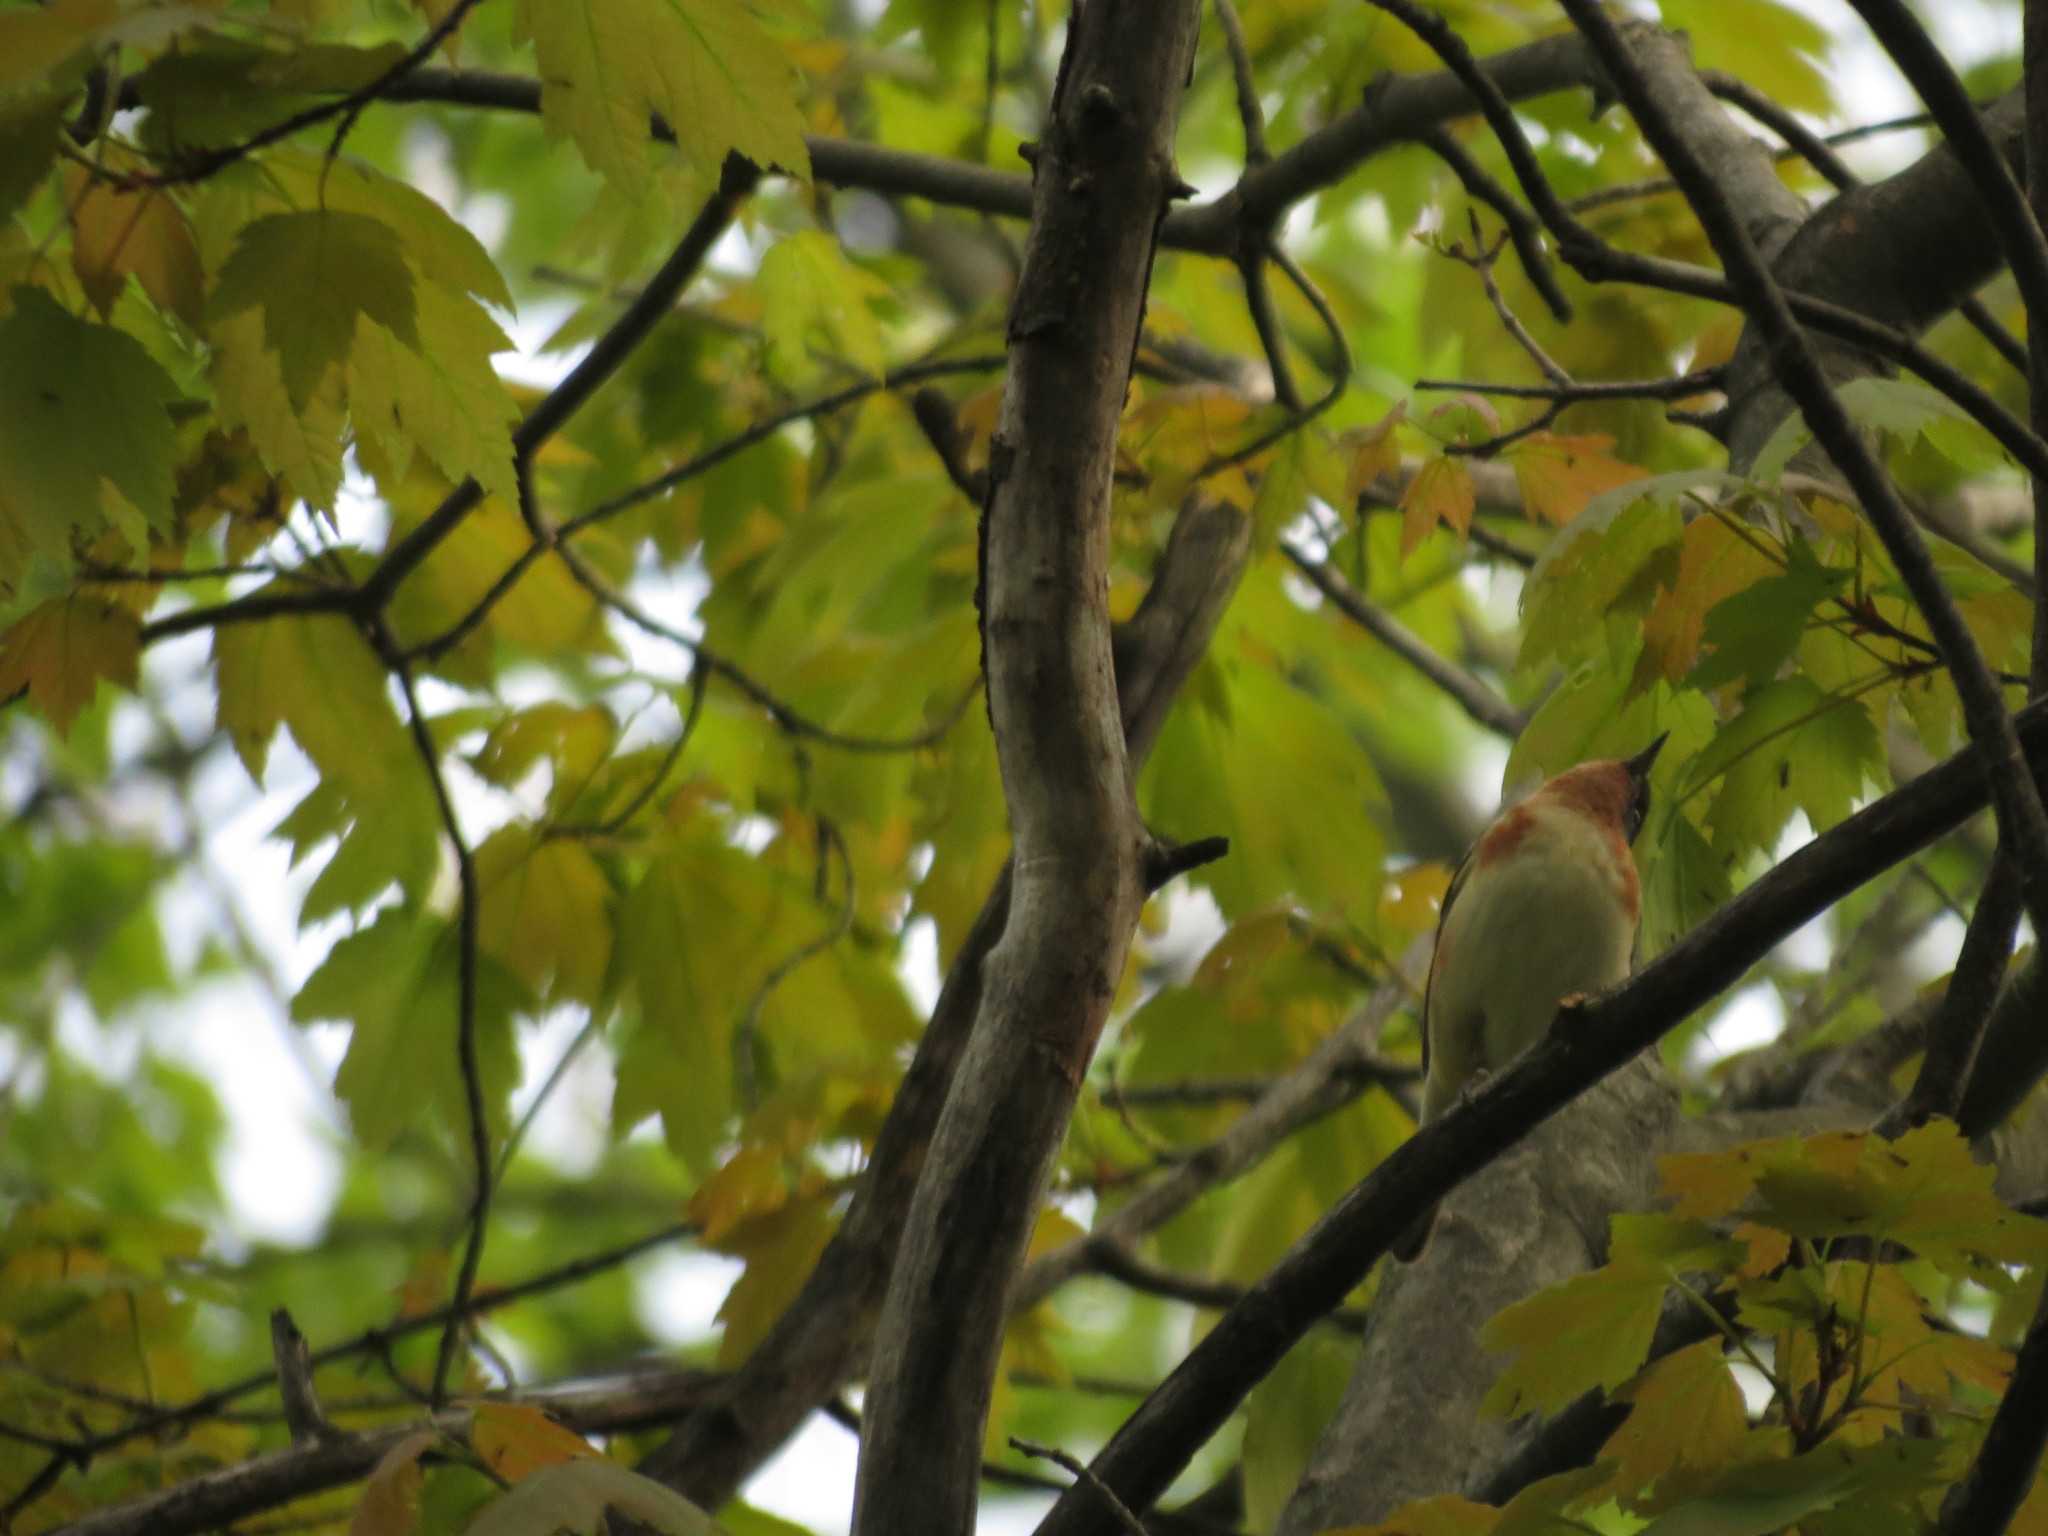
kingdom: Animalia
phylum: Chordata
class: Aves
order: Passeriformes
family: Parulidae
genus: Setophaga
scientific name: Setophaga castanea
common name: Bay-breasted warbler
